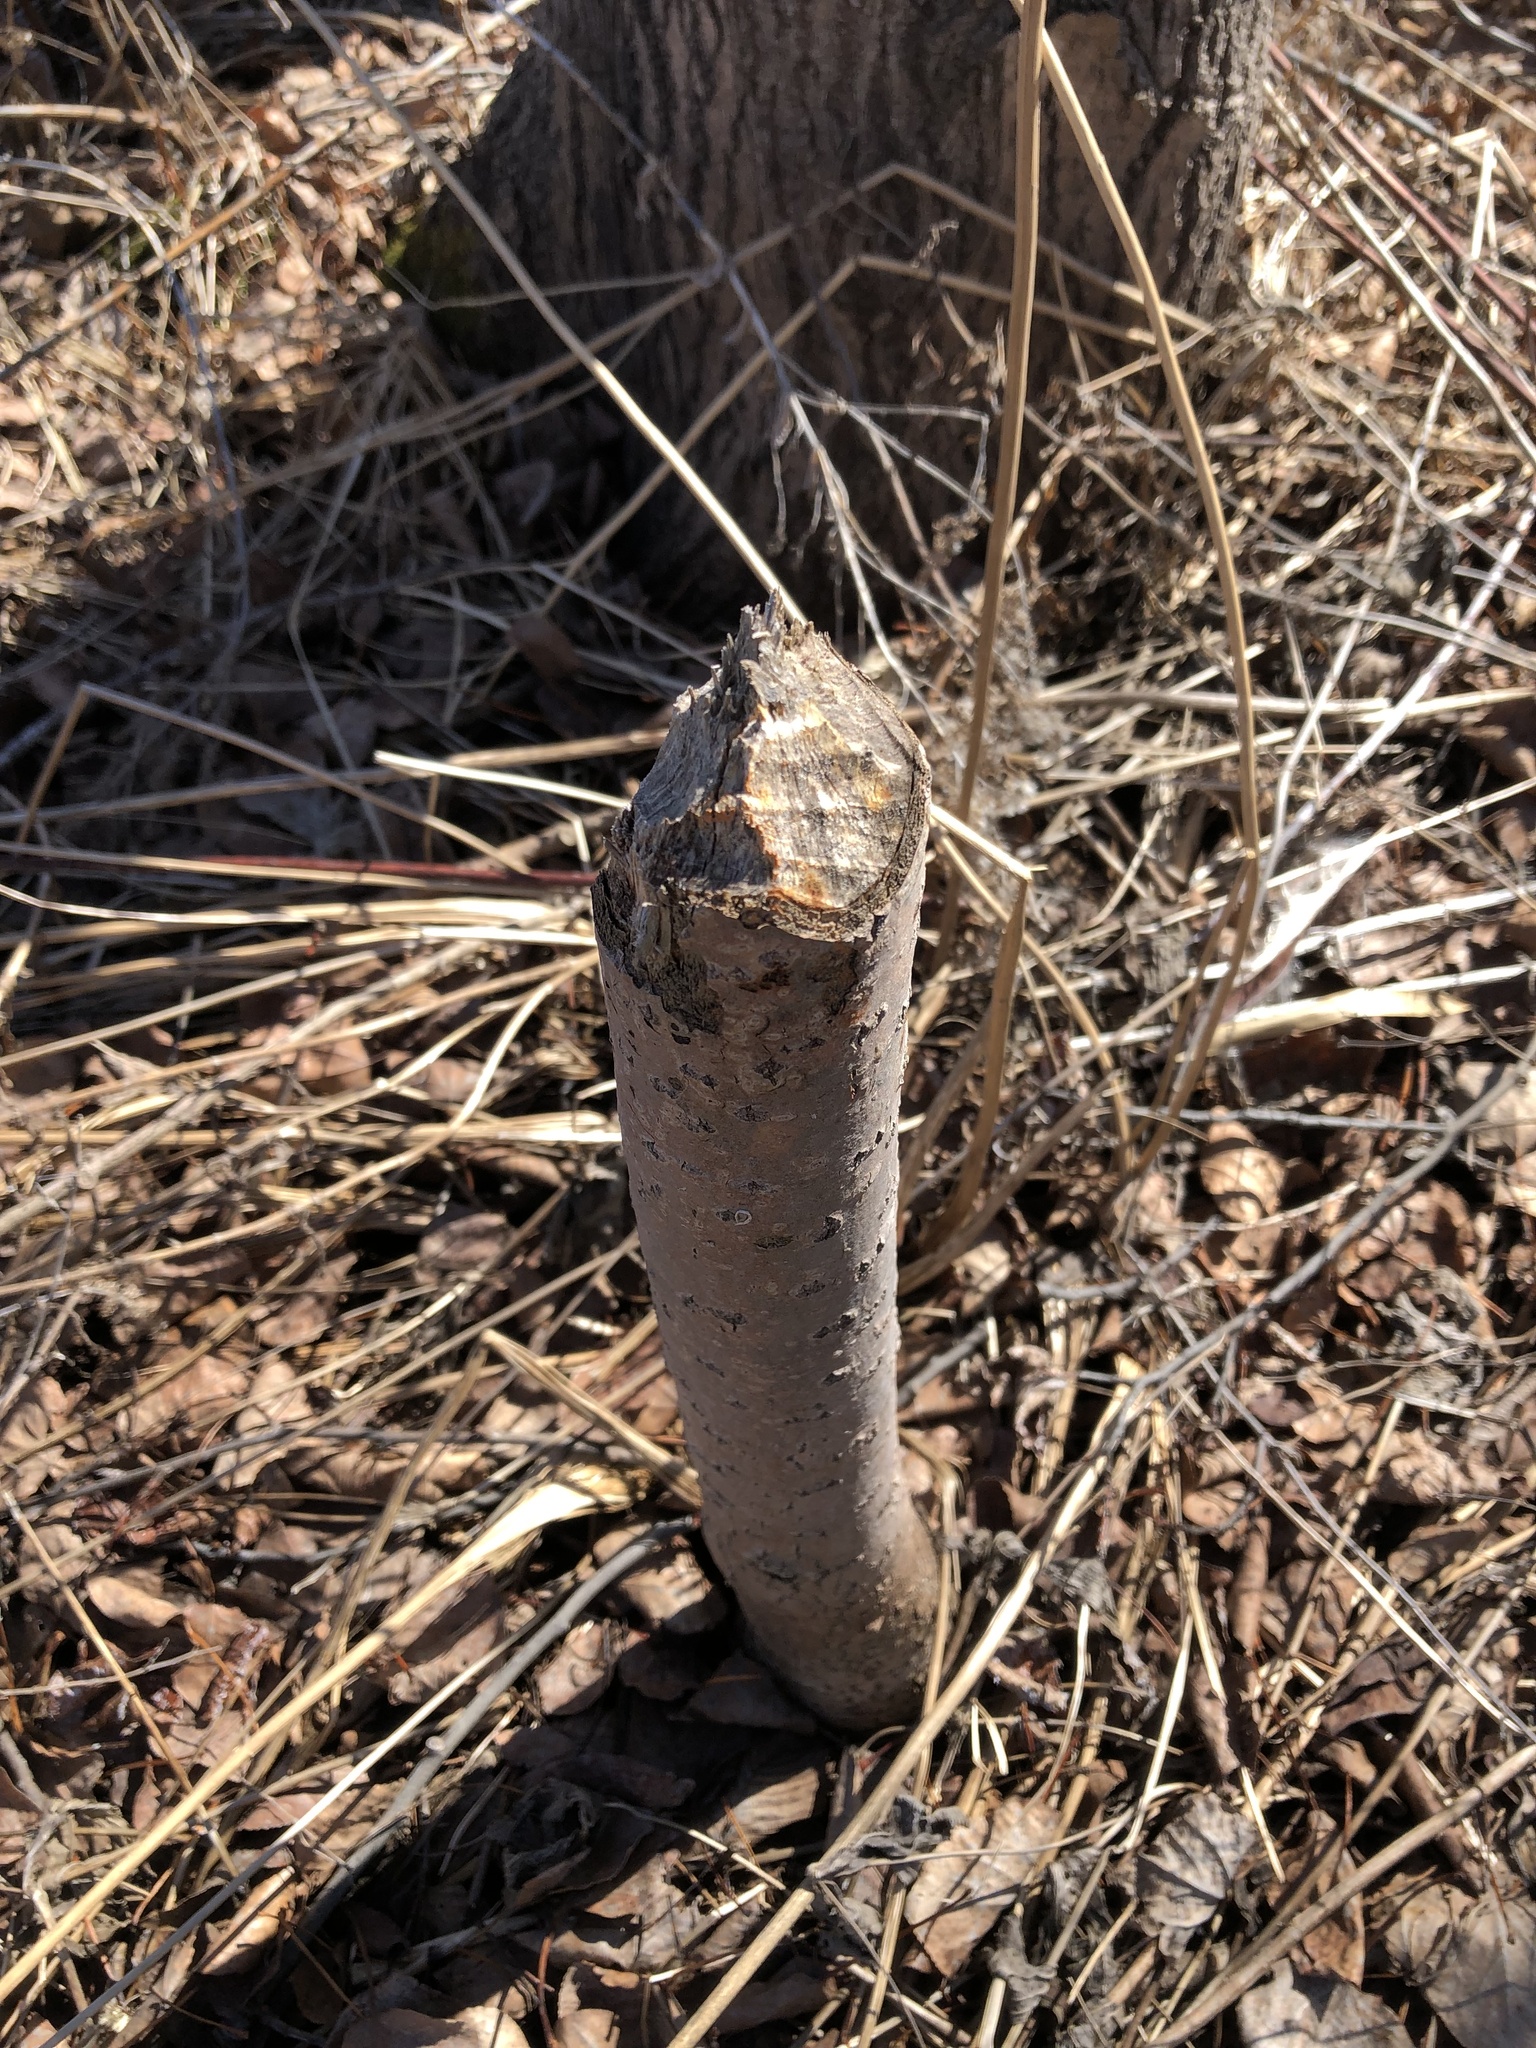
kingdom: Animalia
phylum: Chordata
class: Mammalia
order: Rodentia
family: Castoridae
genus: Castor
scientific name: Castor canadensis
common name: American beaver
